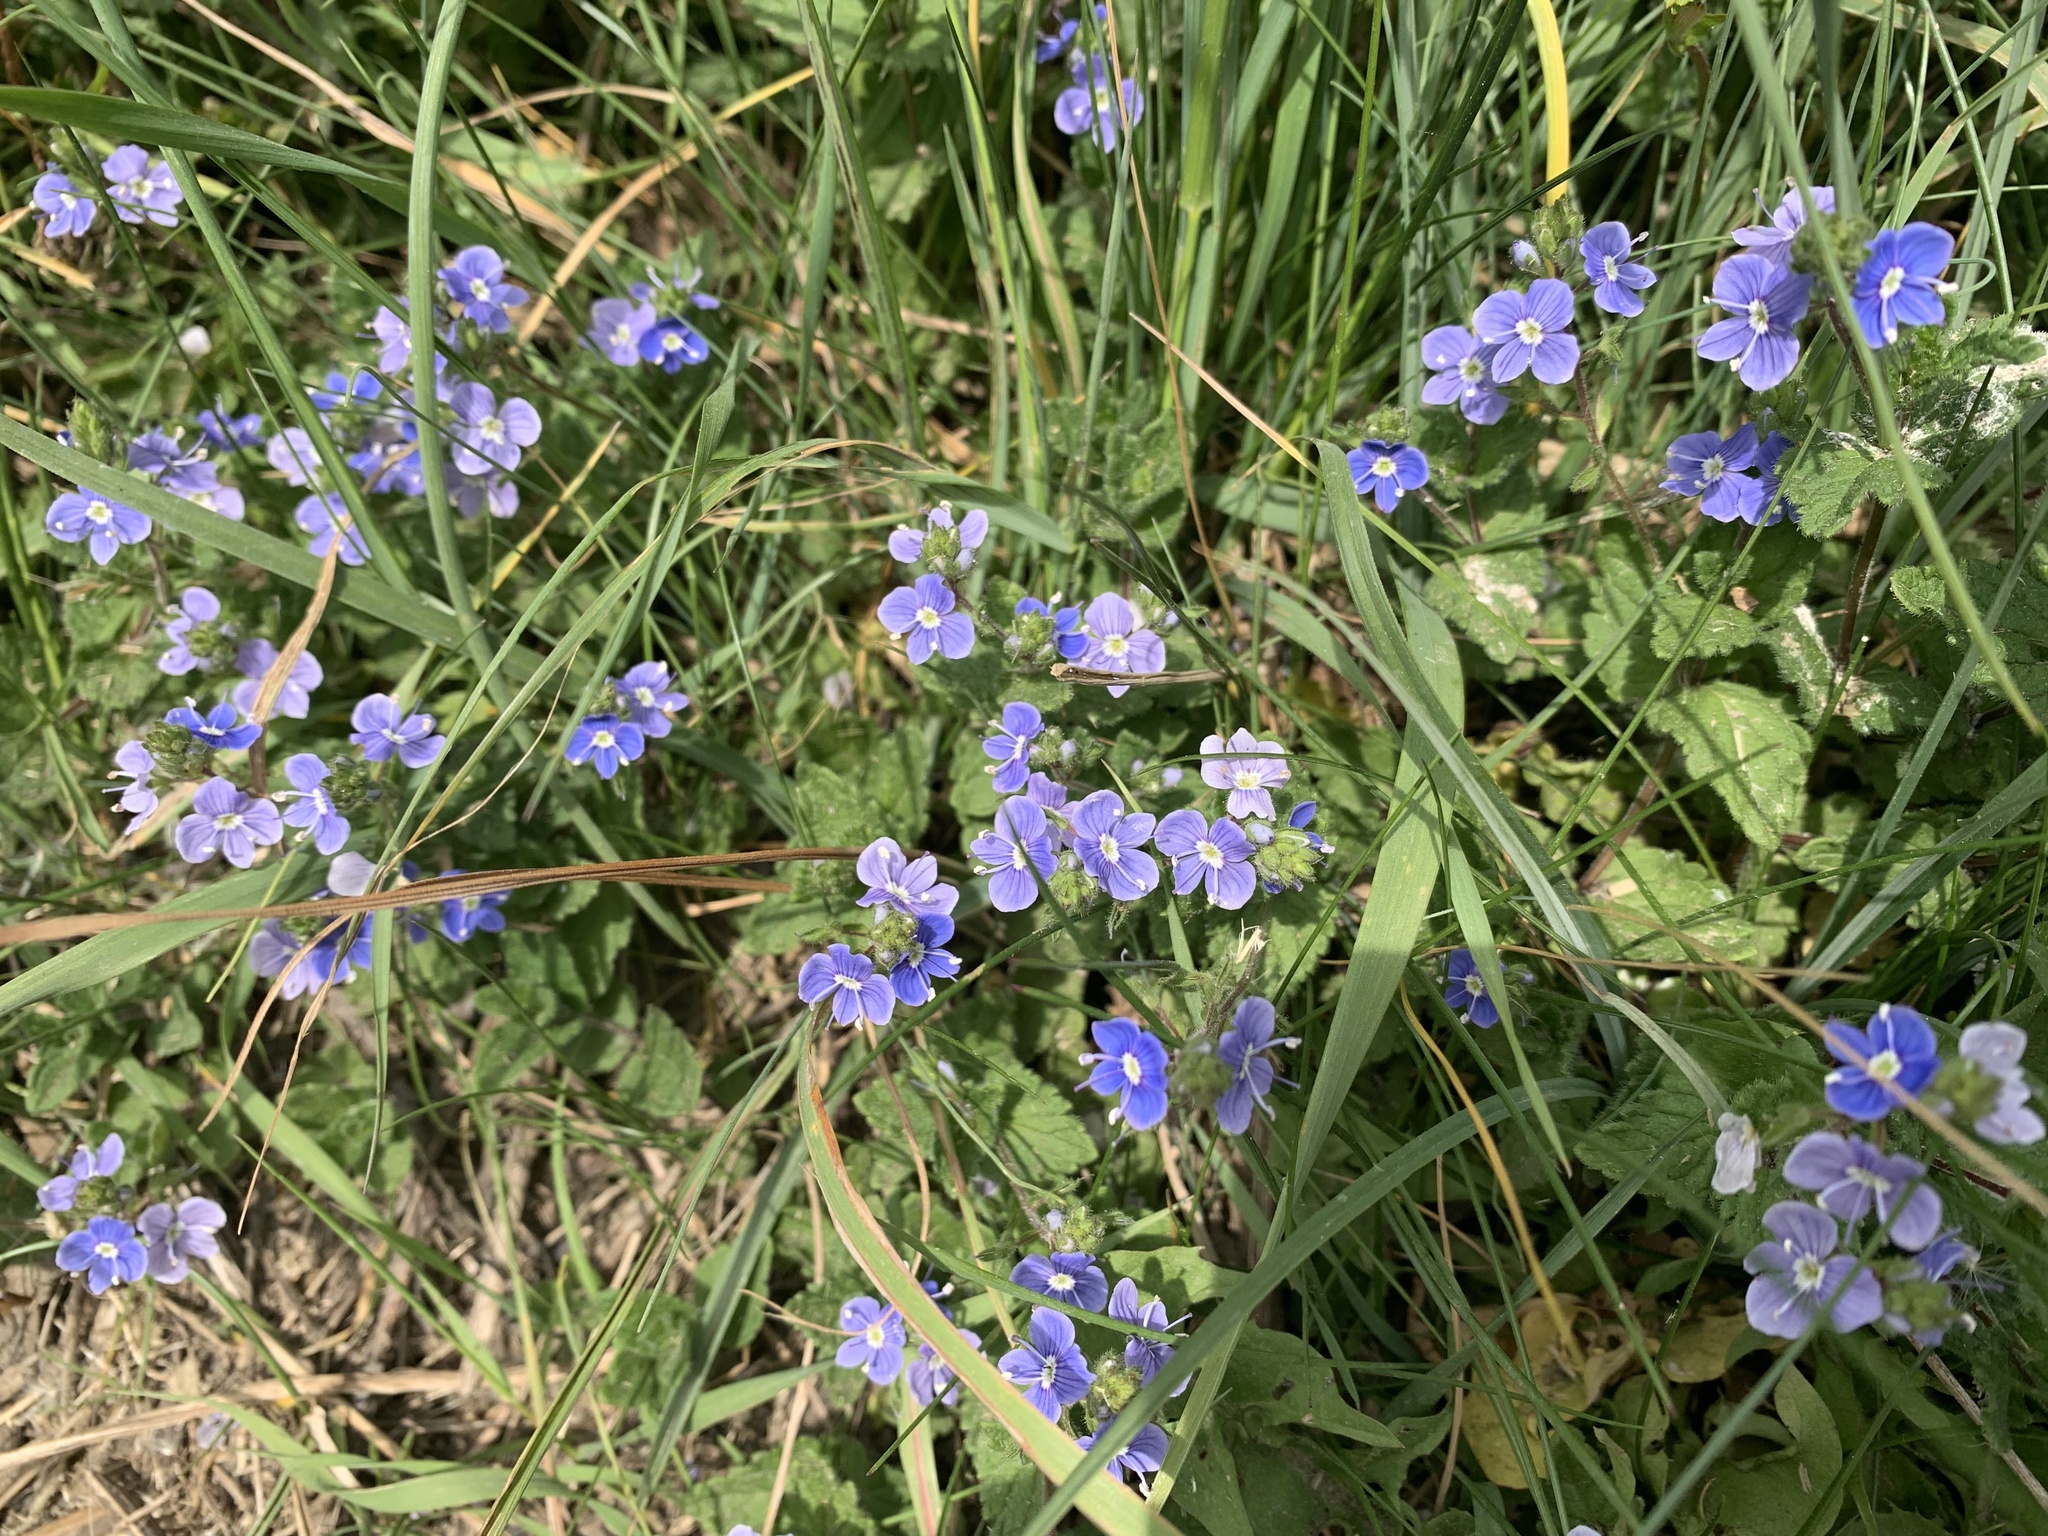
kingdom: Plantae
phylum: Tracheophyta
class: Magnoliopsida
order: Lamiales
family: Plantaginaceae
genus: Veronica
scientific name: Veronica chamaedrys
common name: Germander speedwell
